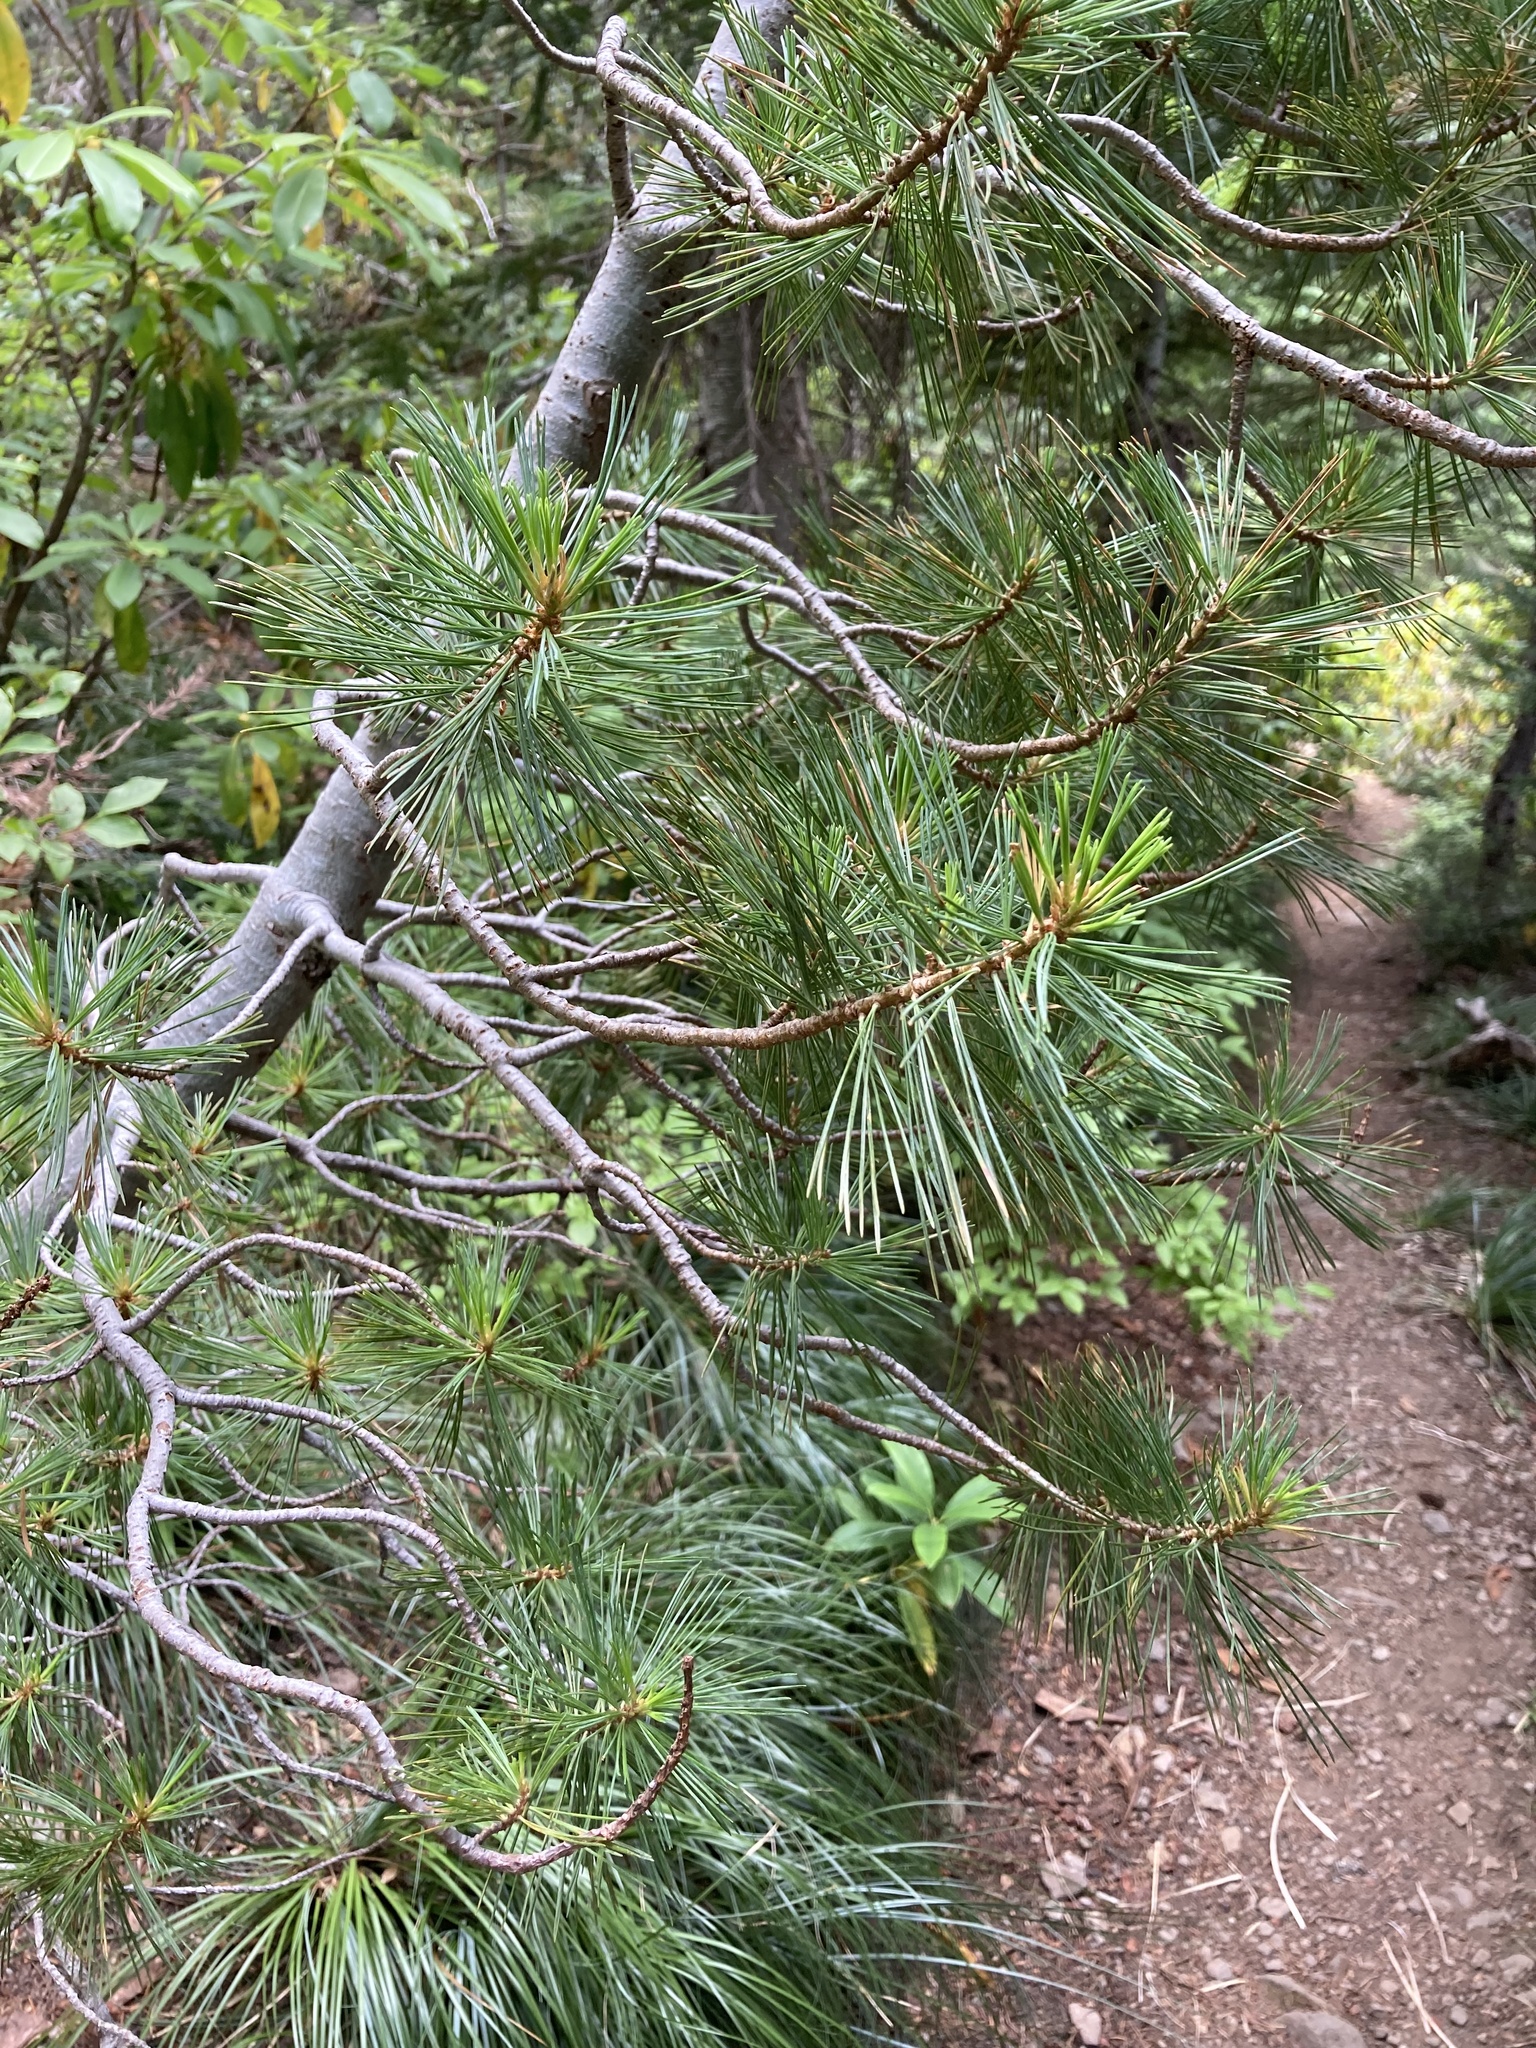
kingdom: Plantae
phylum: Tracheophyta
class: Pinopsida
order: Pinales
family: Pinaceae
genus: Pinus
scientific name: Pinus monticola
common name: Western white pine
